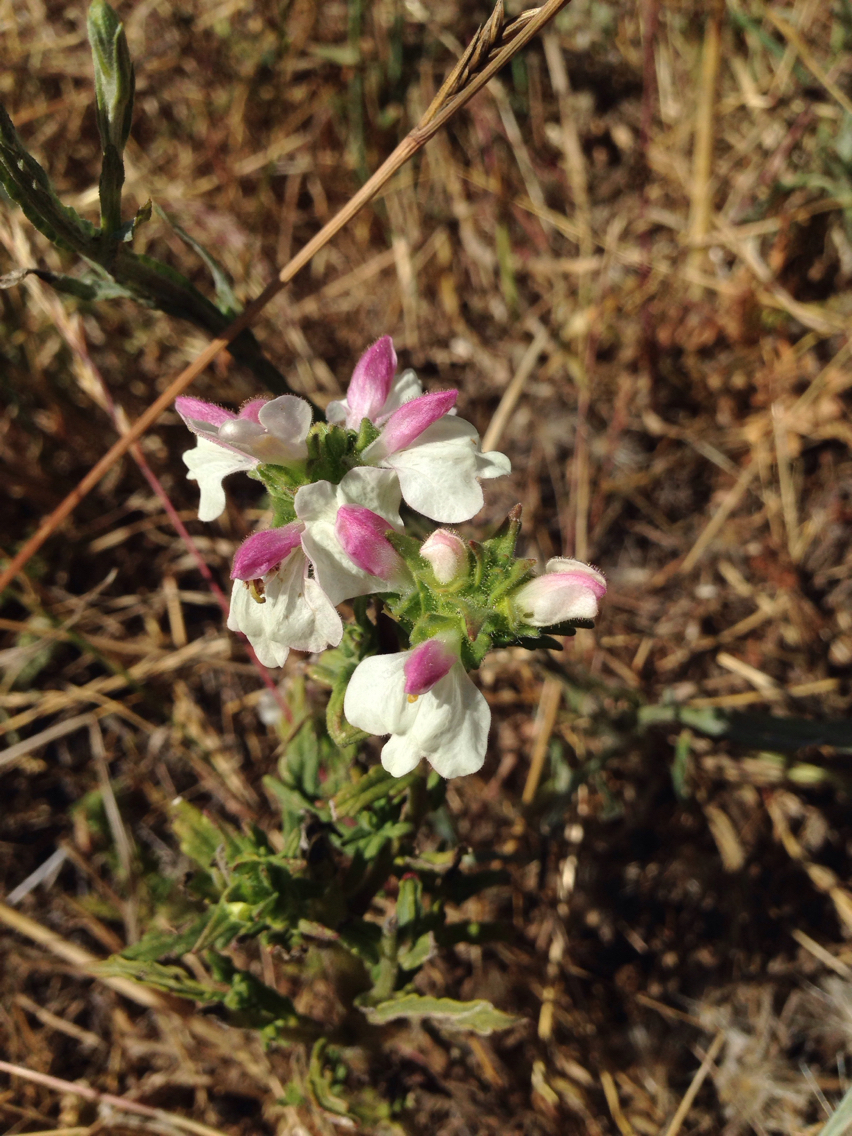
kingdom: Plantae
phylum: Tracheophyta
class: Magnoliopsida
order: Lamiales
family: Orobanchaceae
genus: Bellardia
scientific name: Bellardia trixago
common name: Mediterranean lineseed
